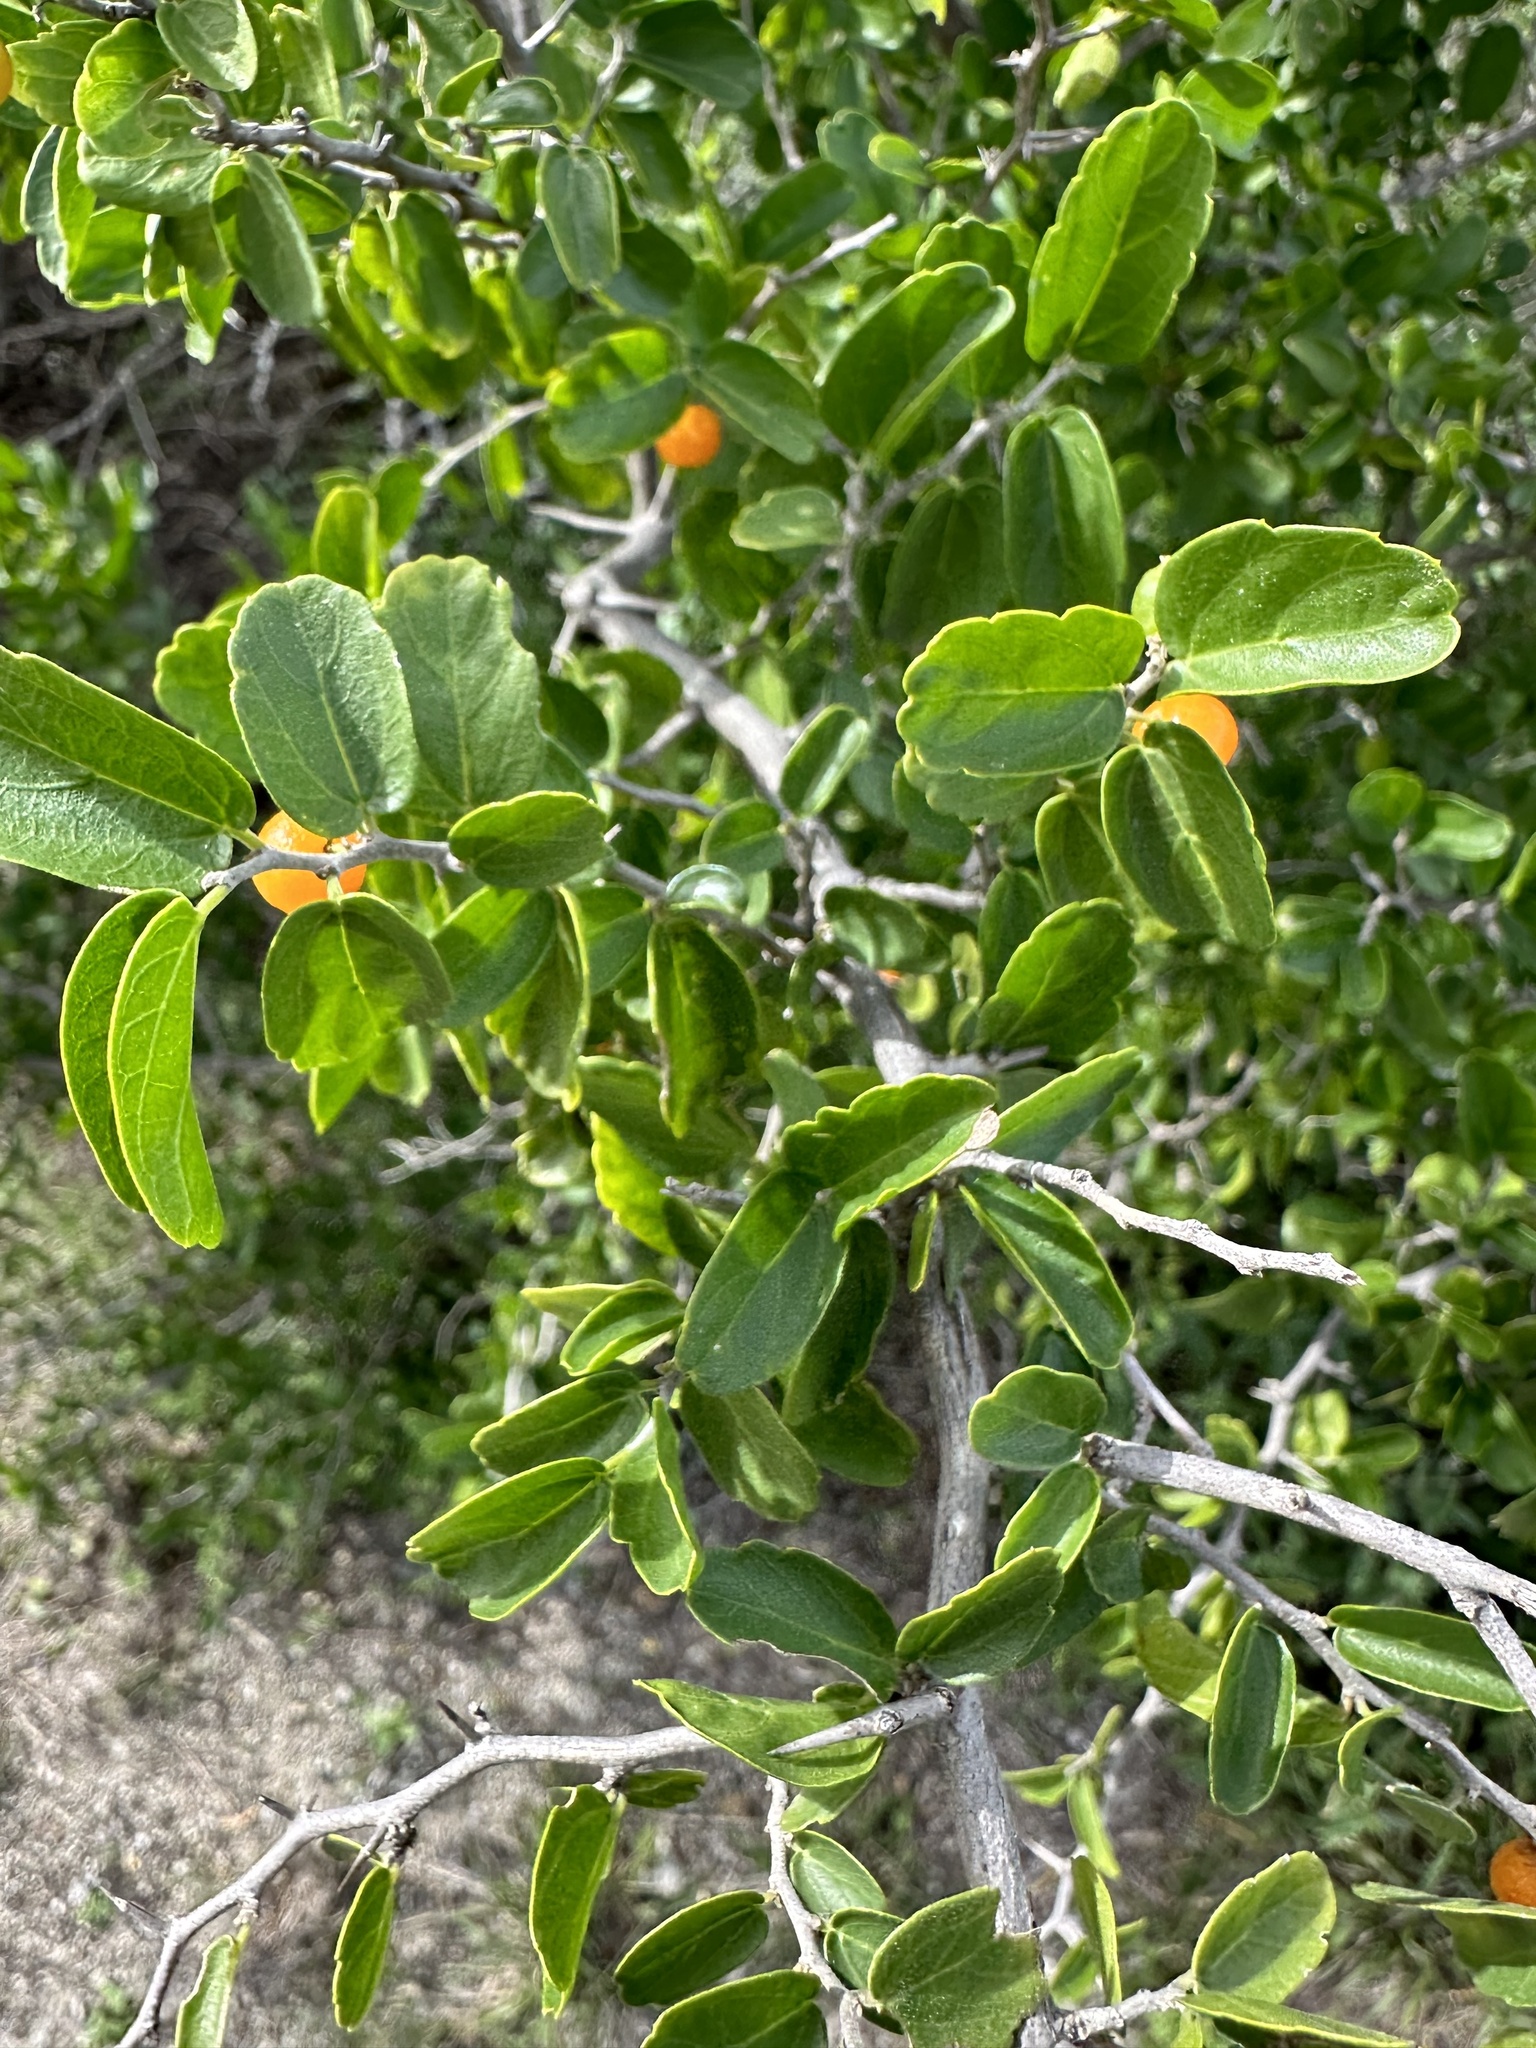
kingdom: Plantae
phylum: Tracheophyta
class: Magnoliopsida
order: Rosales
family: Cannabaceae
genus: Celtis
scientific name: Celtis pallida
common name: Desert hackberry
